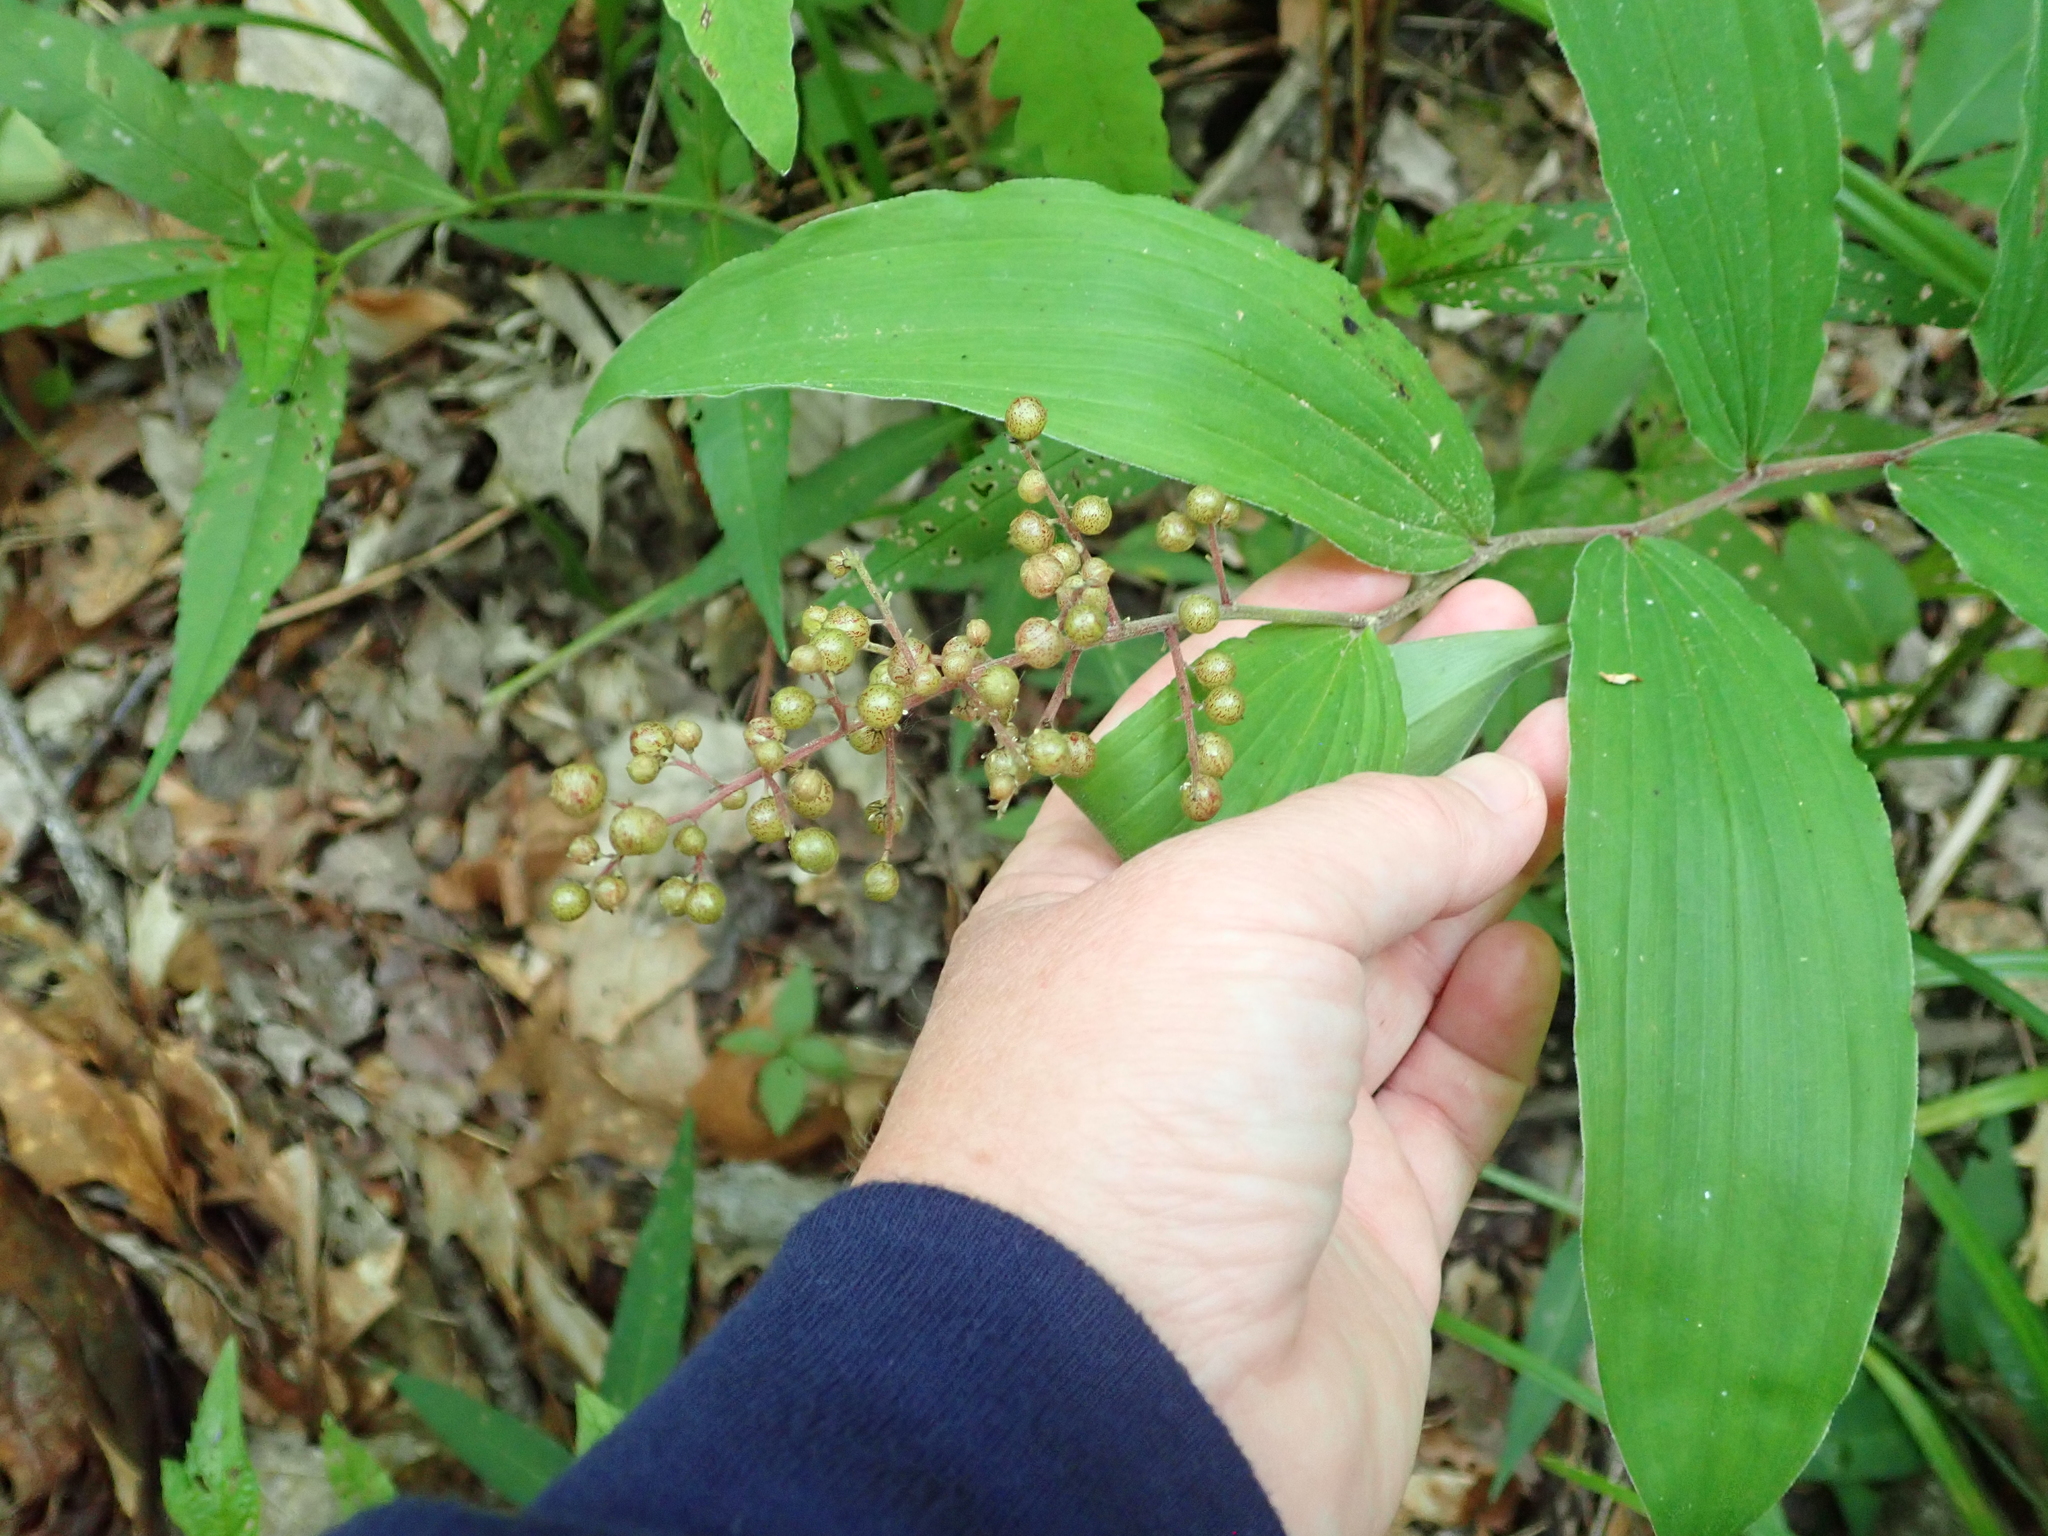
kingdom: Plantae
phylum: Tracheophyta
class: Liliopsida
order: Asparagales
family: Asparagaceae
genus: Maianthemum
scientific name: Maianthemum racemosum
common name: False spikenard
